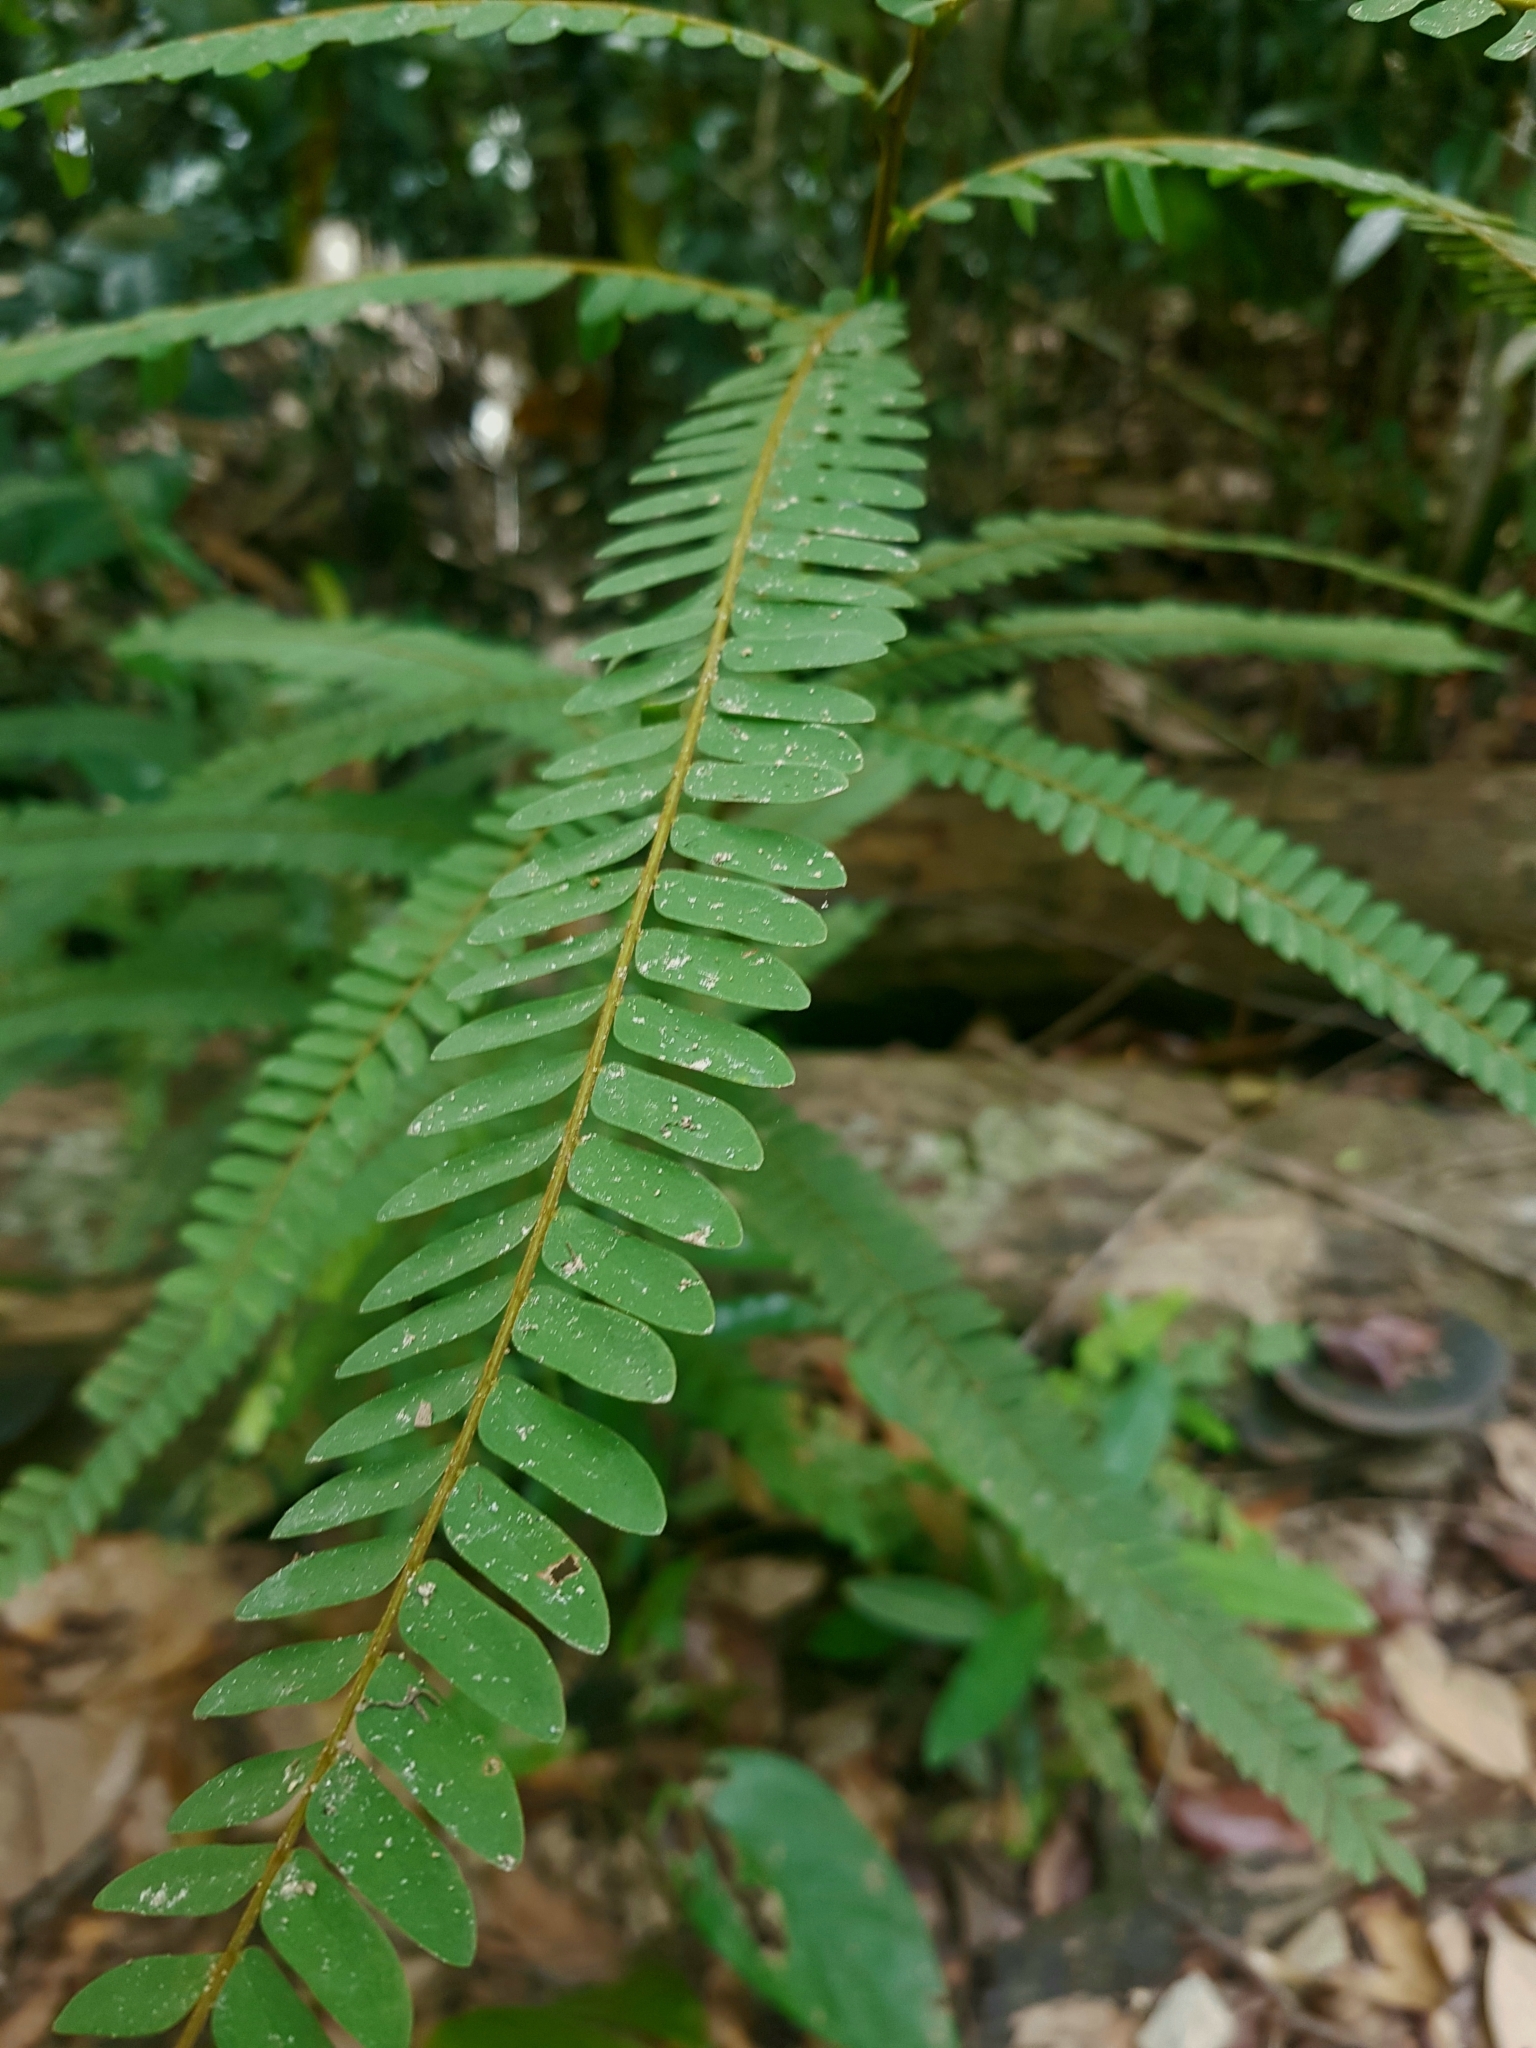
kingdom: Plantae
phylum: Tracheophyta
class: Magnoliopsida
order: Oxalidales
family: Connaraceae
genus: Rourea
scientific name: Rourea fulgens
